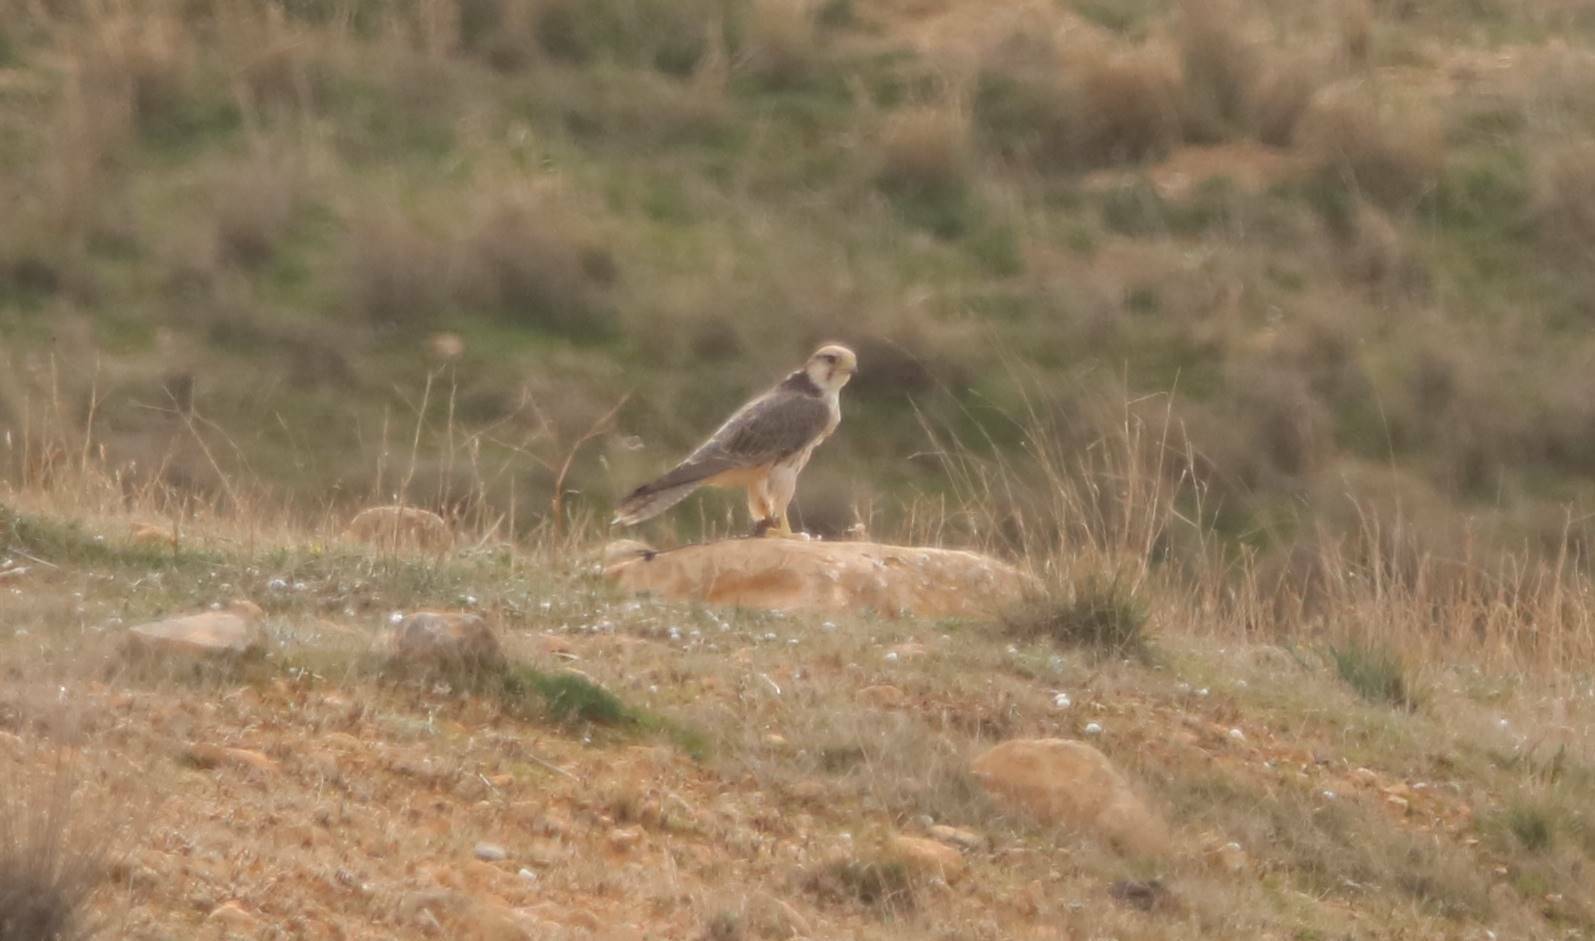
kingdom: Animalia
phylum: Chordata
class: Aves
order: Falconiformes
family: Falconidae
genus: Falco
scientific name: Falco biarmicus
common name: Lanner falcon
